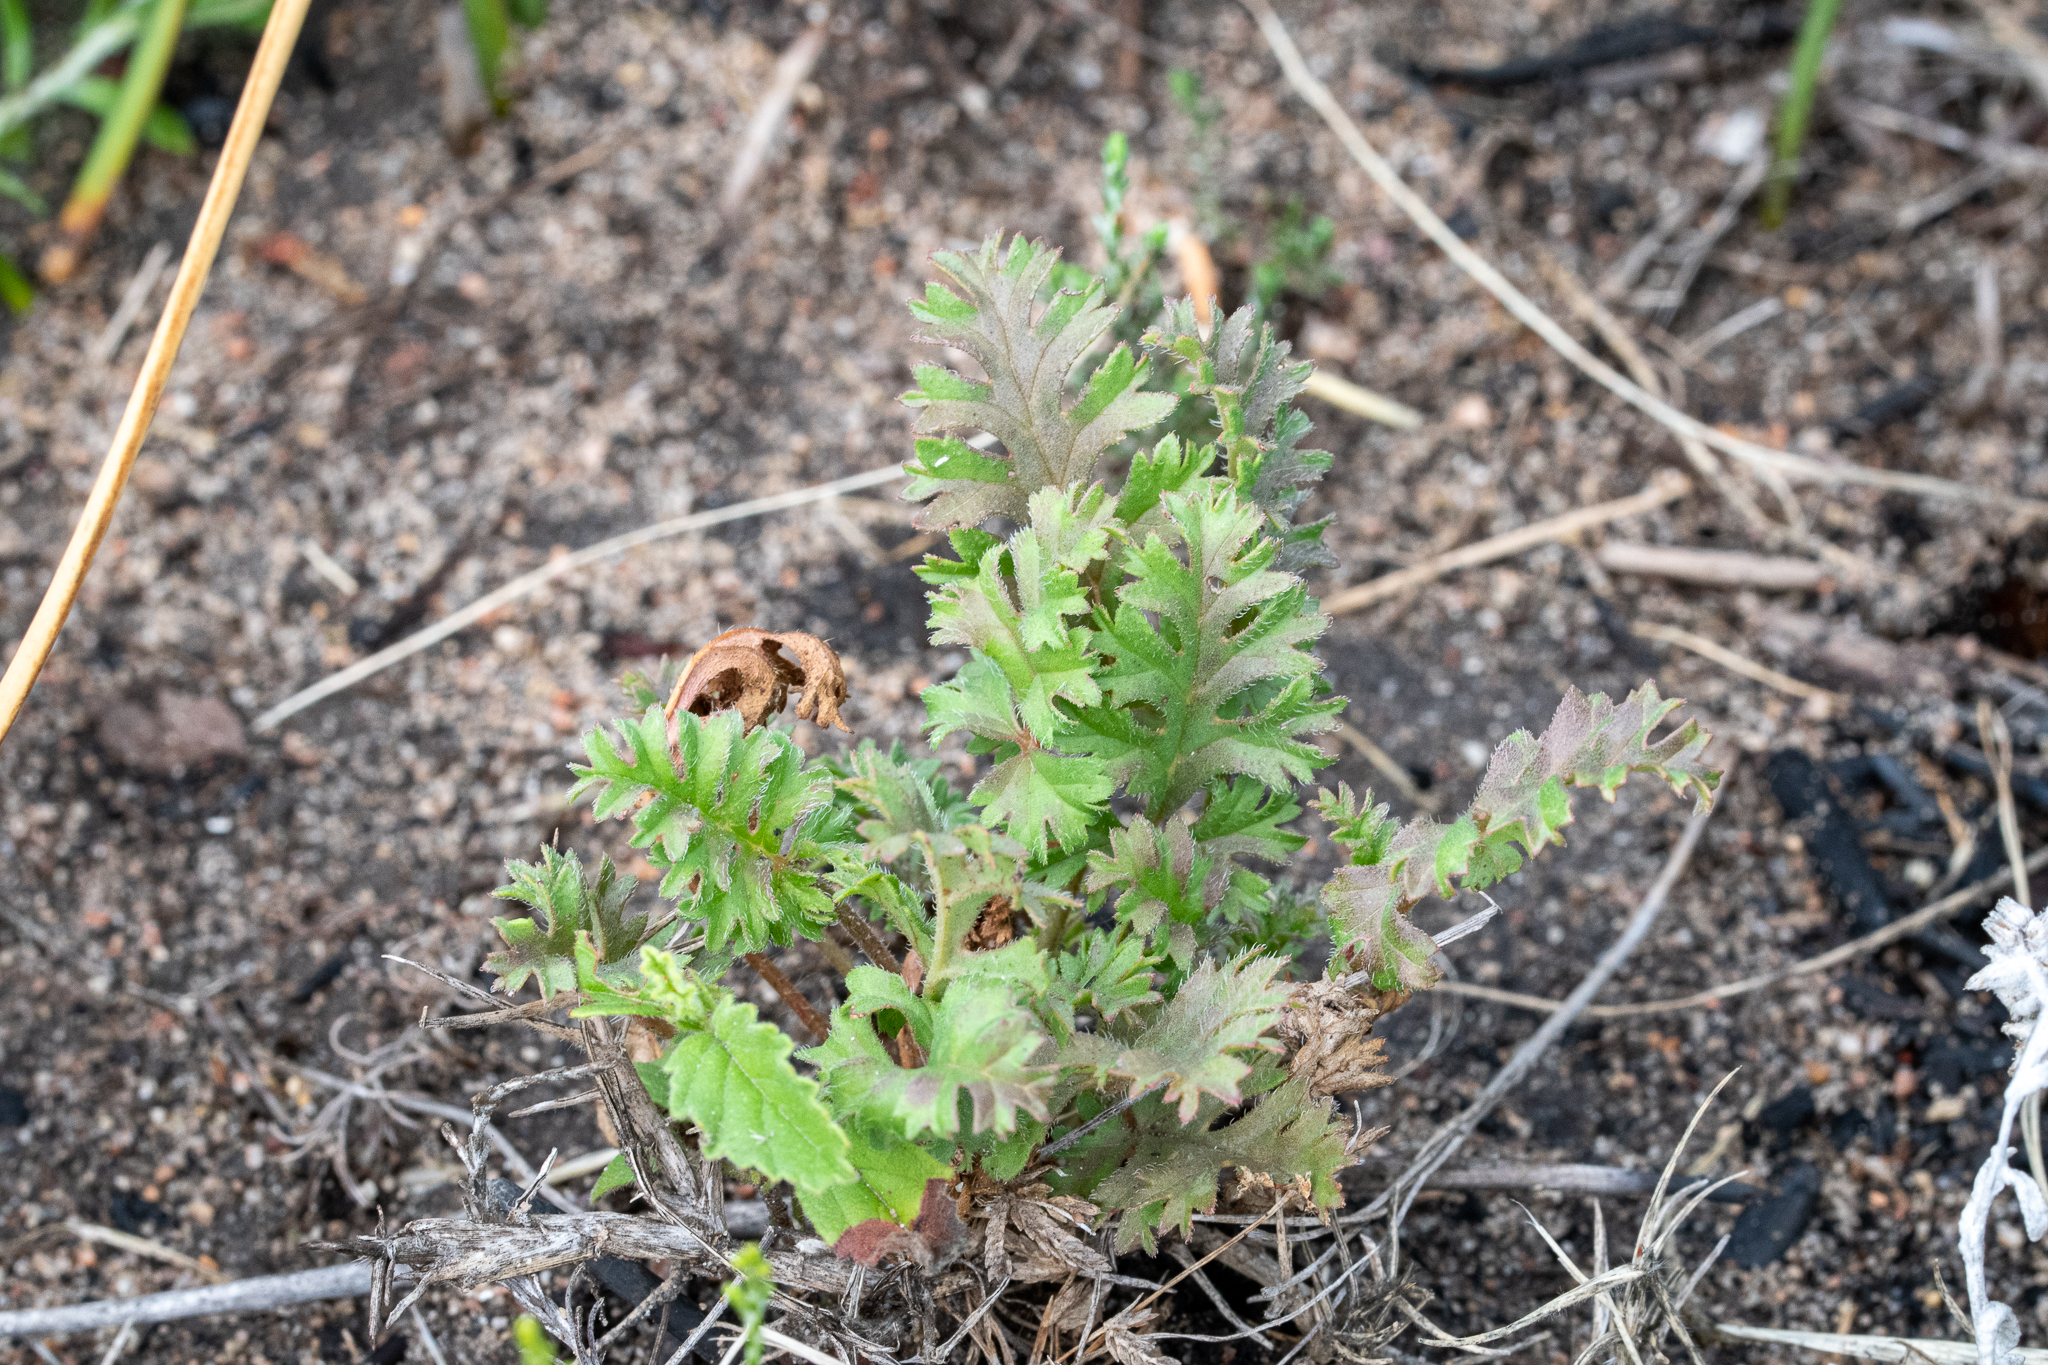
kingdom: Plantae
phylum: Tracheophyta
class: Magnoliopsida
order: Geraniales
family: Geraniaceae
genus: Pelargonium
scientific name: Pelargonium myrrhifolium
